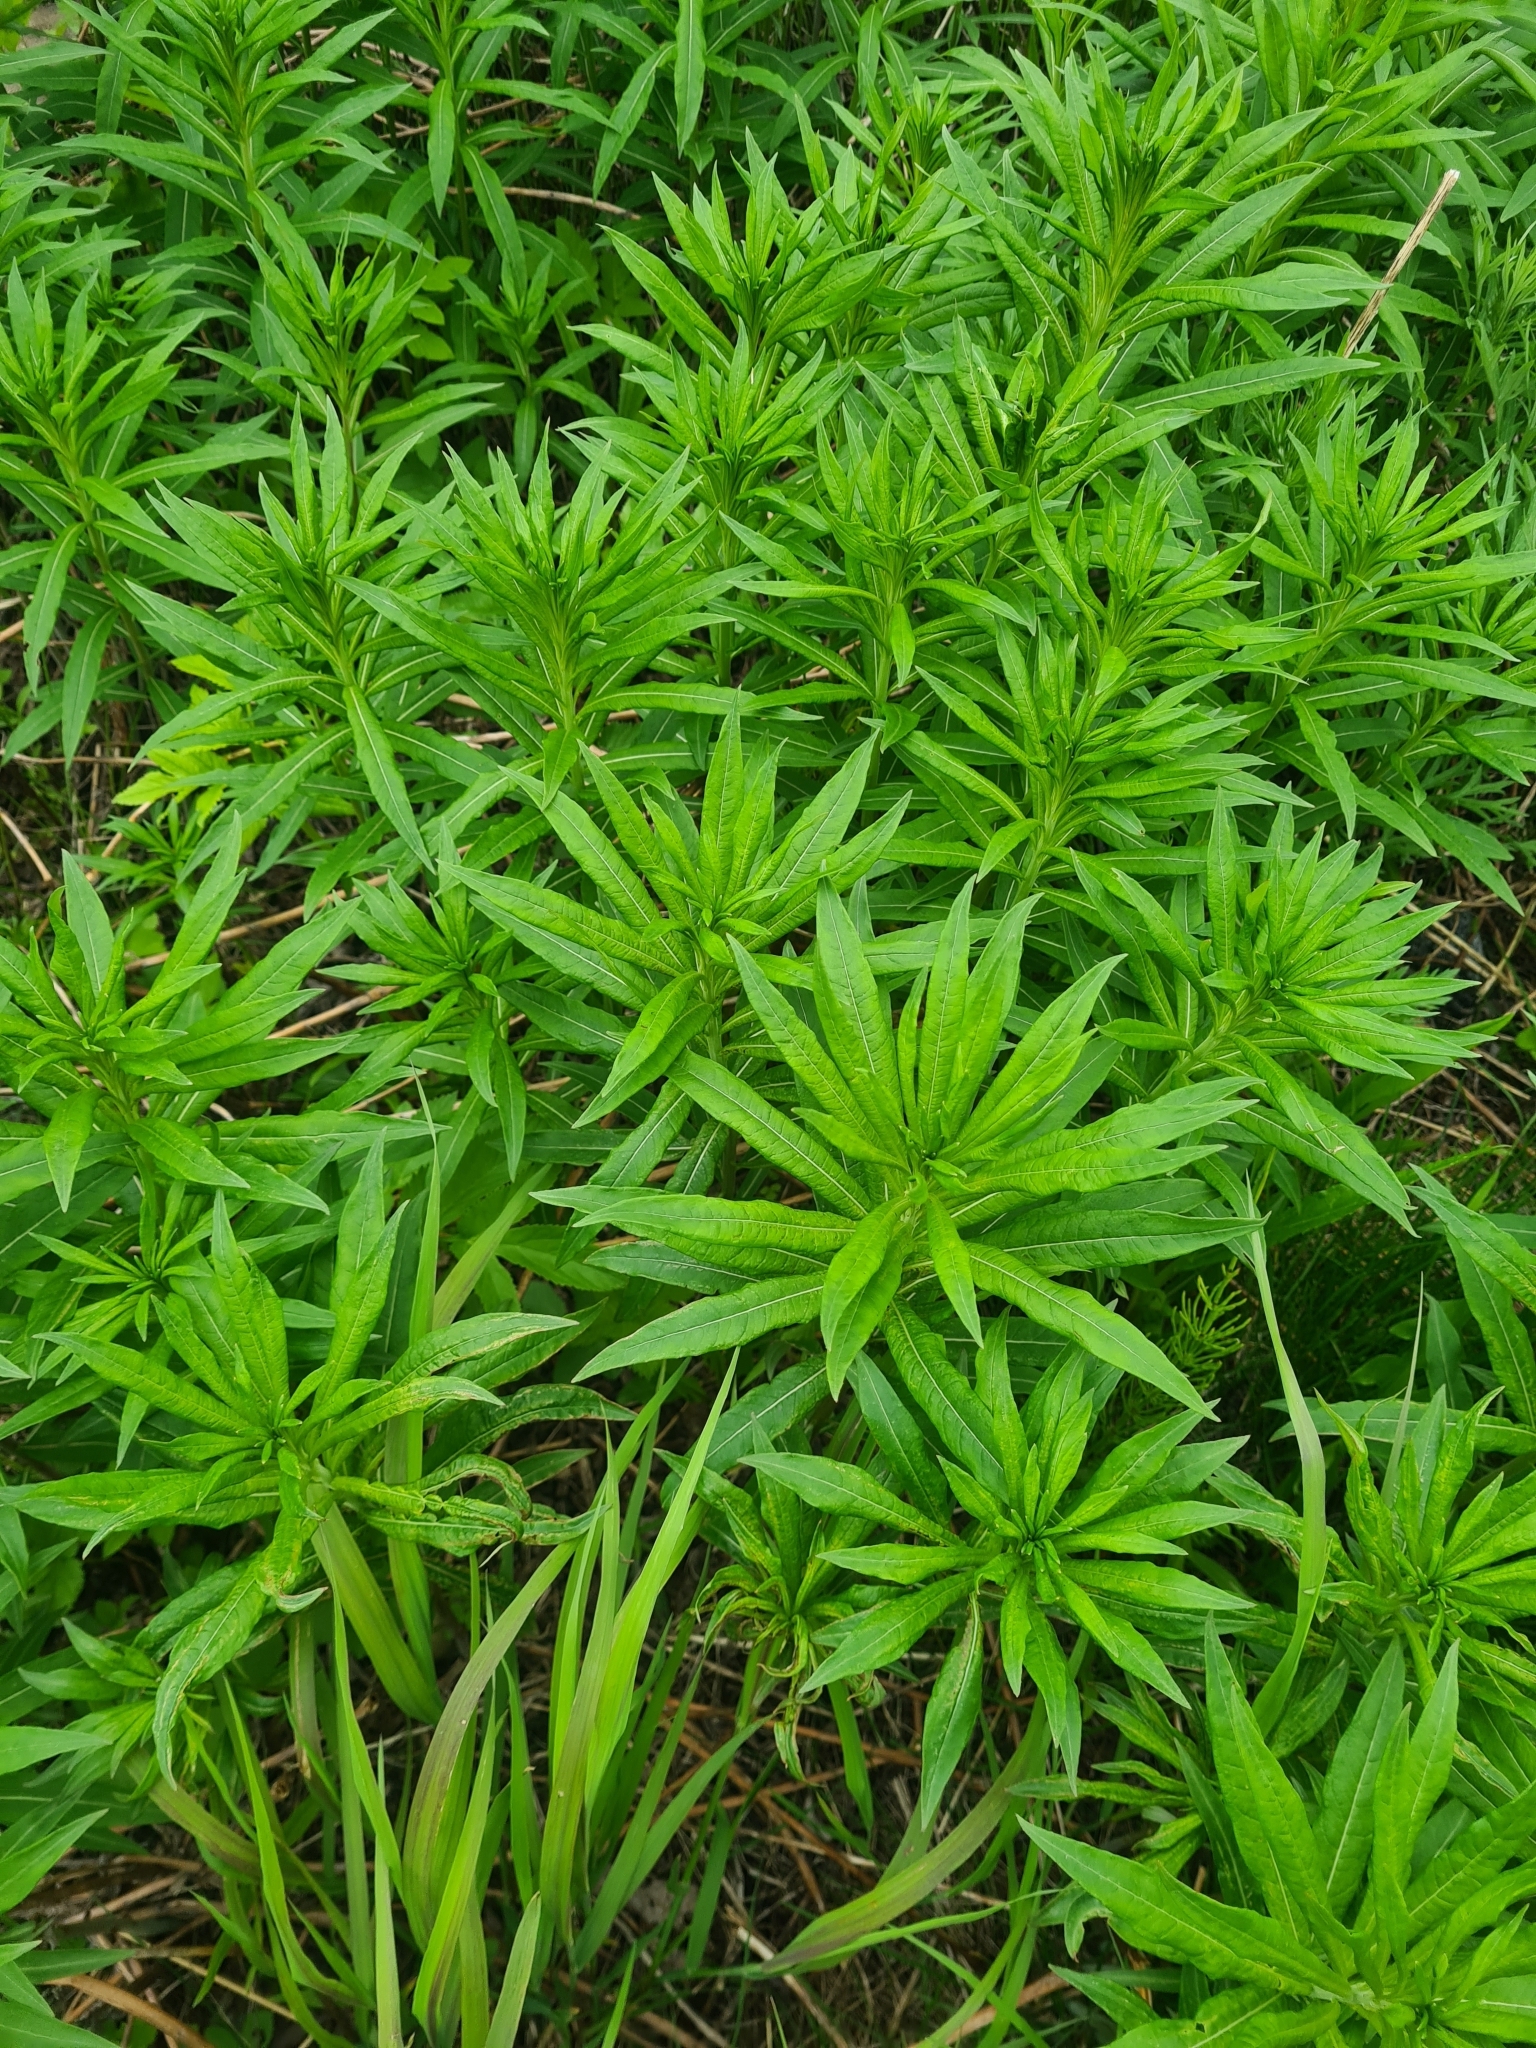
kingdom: Plantae
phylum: Tracheophyta
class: Magnoliopsida
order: Myrtales
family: Onagraceae
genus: Chamaenerion
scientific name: Chamaenerion angustifolium
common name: Fireweed
